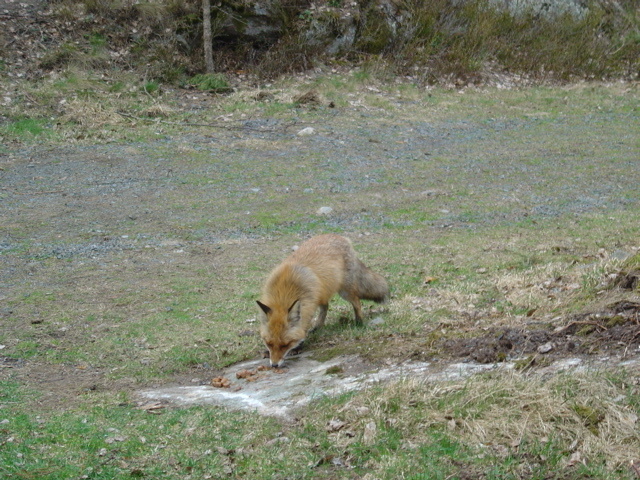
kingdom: Animalia
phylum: Chordata
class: Mammalia
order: Carnivora
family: Canidae
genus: Vulpes
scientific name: Vulpes vulpes
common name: Red fox
